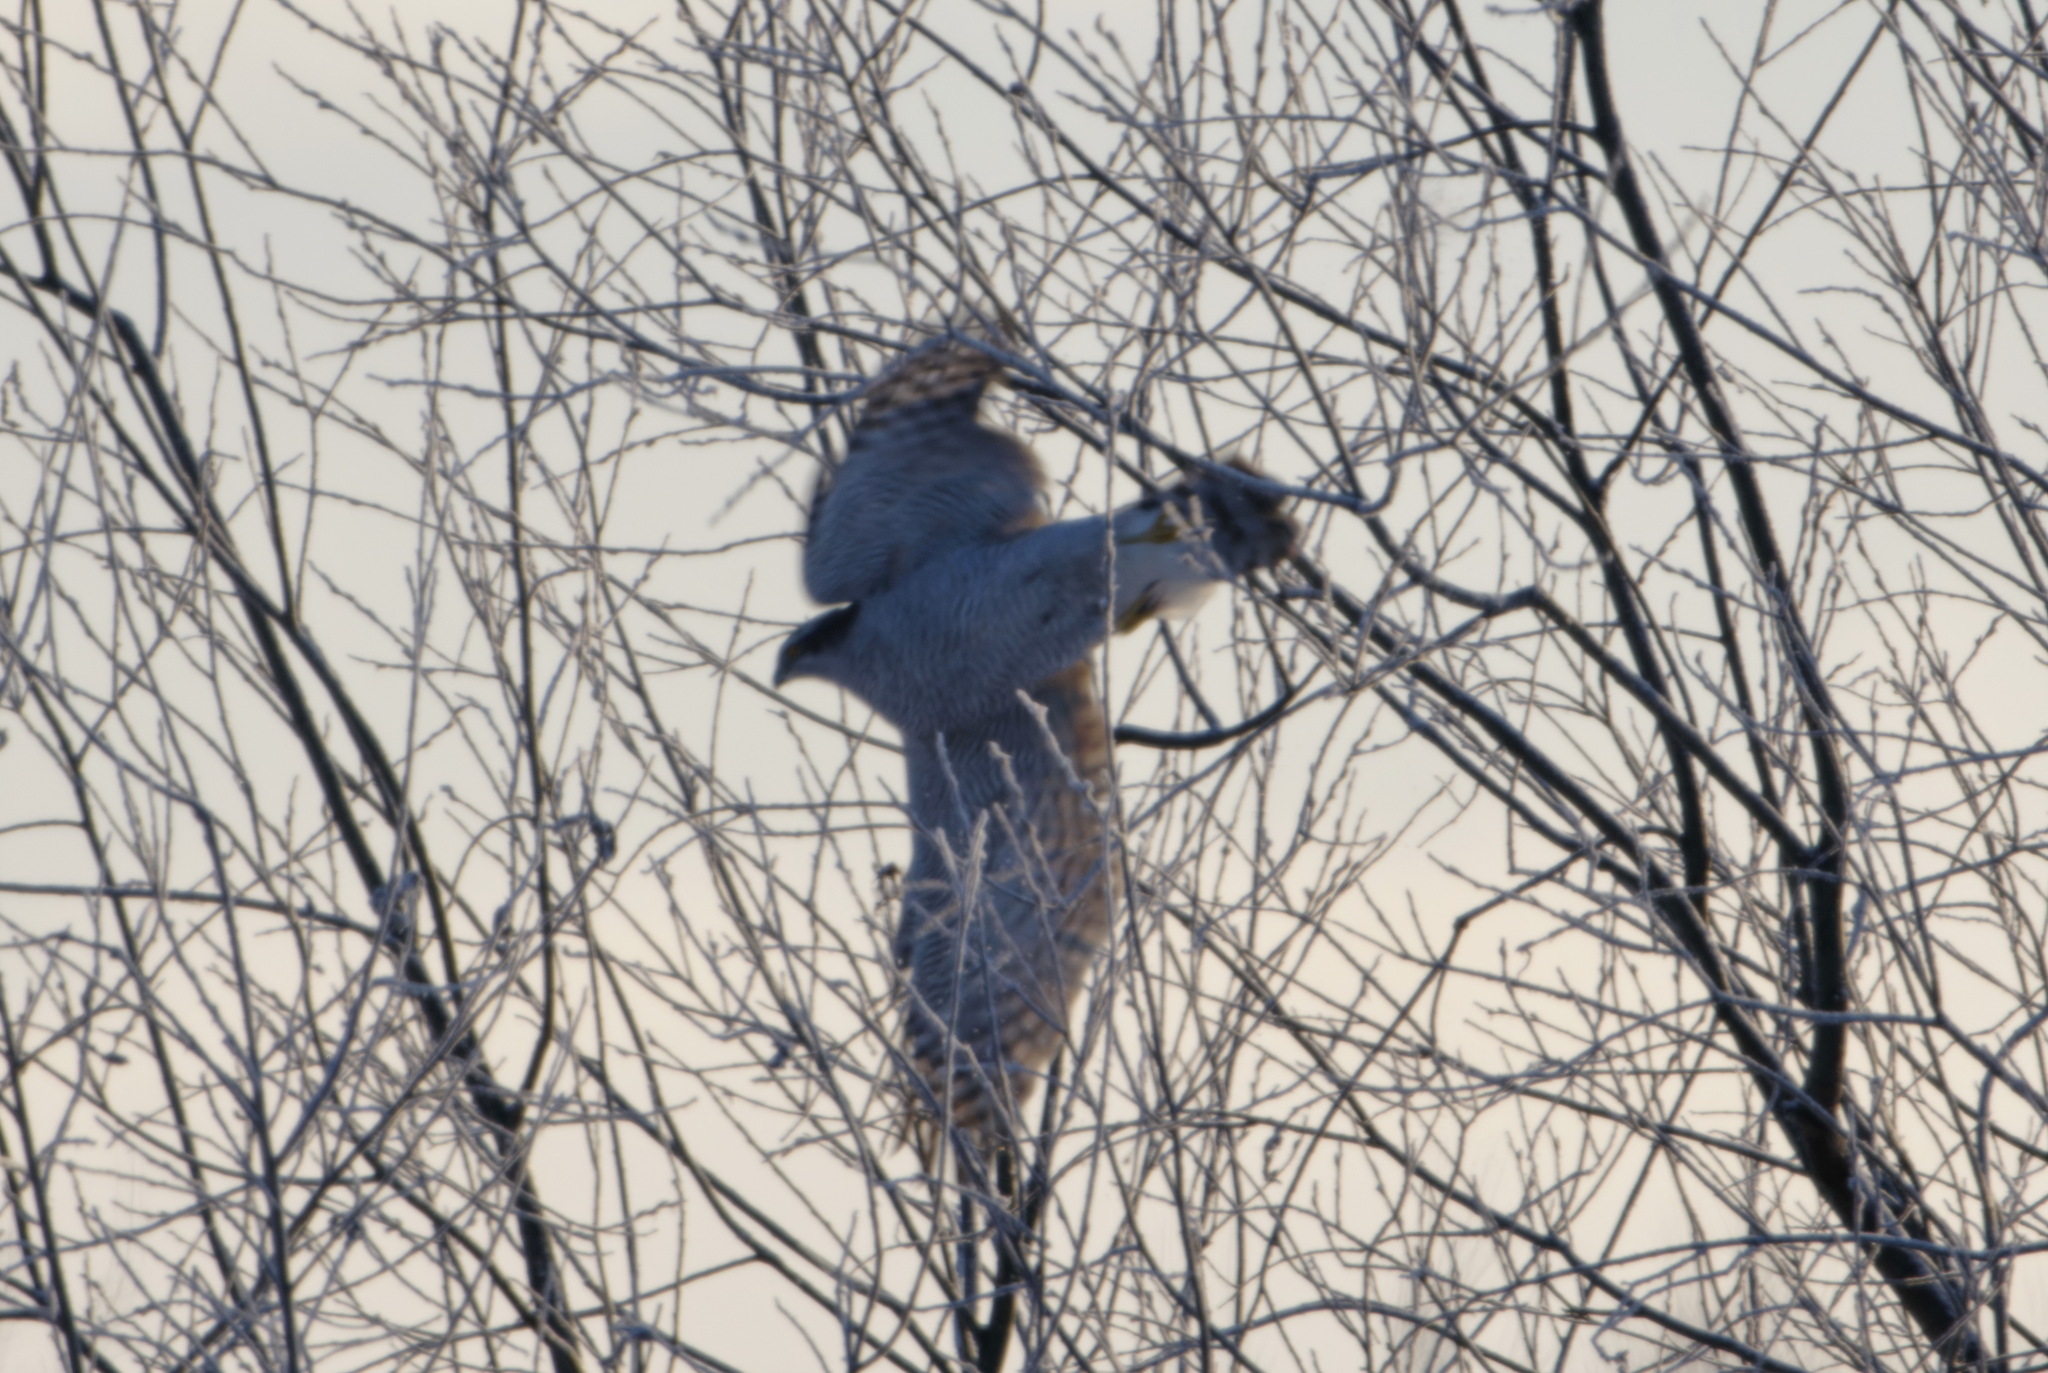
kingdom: Animalia
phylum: Chordata
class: Aves
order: Accipitriformes
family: Accipitridae
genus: Accipiter
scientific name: Accipiter gentilis
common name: Northern goshawk
